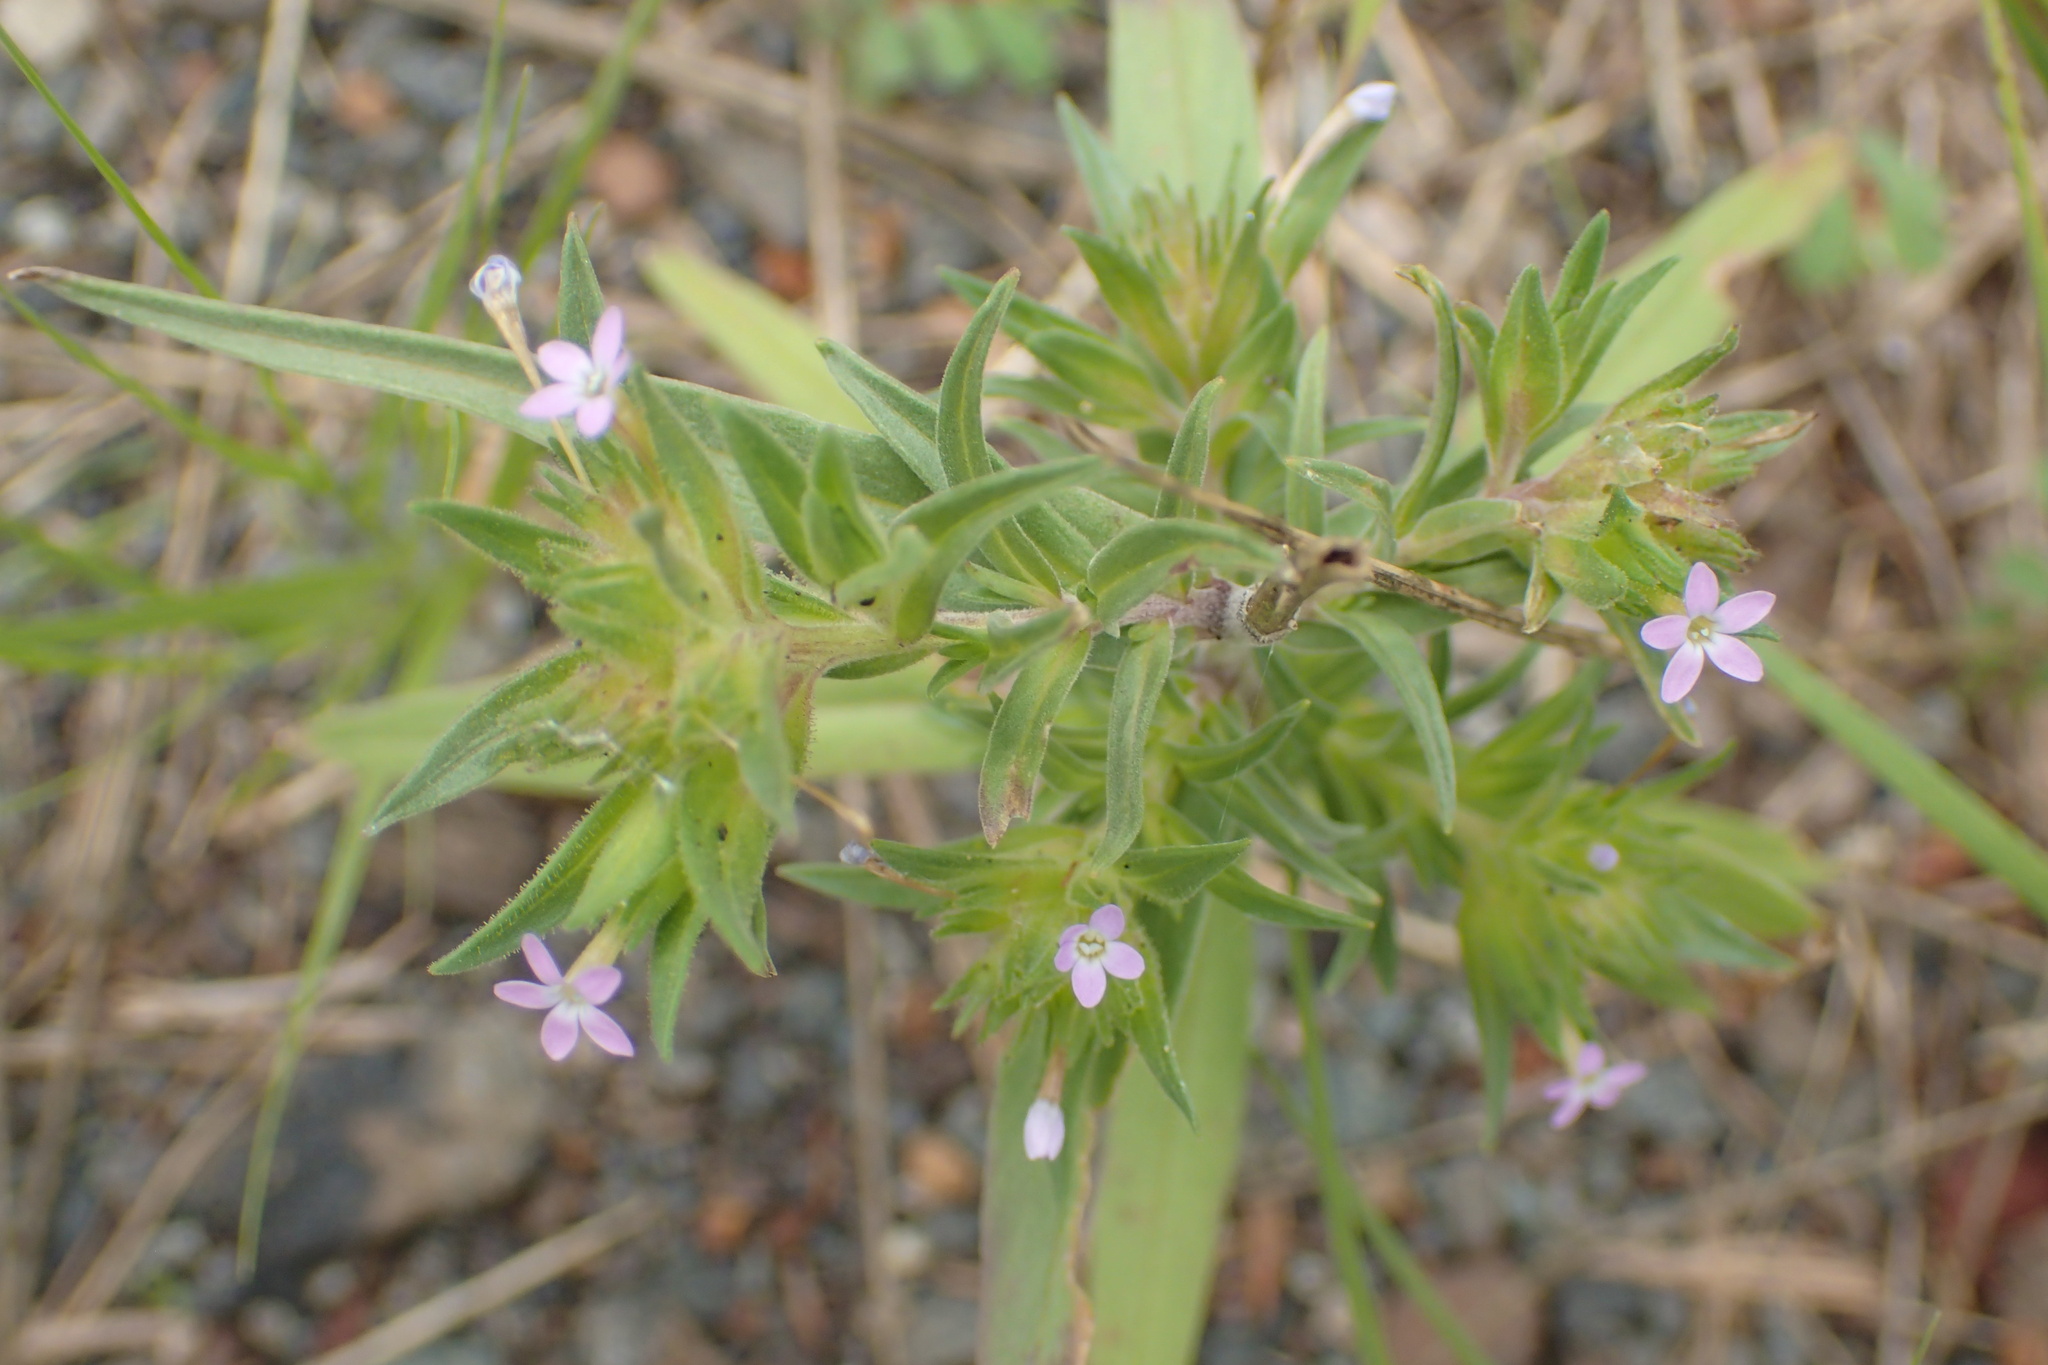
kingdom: Plantae
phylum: Tracheophyta
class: Magnoliopsida
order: Ericales
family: Polemoniaceae
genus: Collomia
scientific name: Collomia linearis
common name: Tiny trumpet
